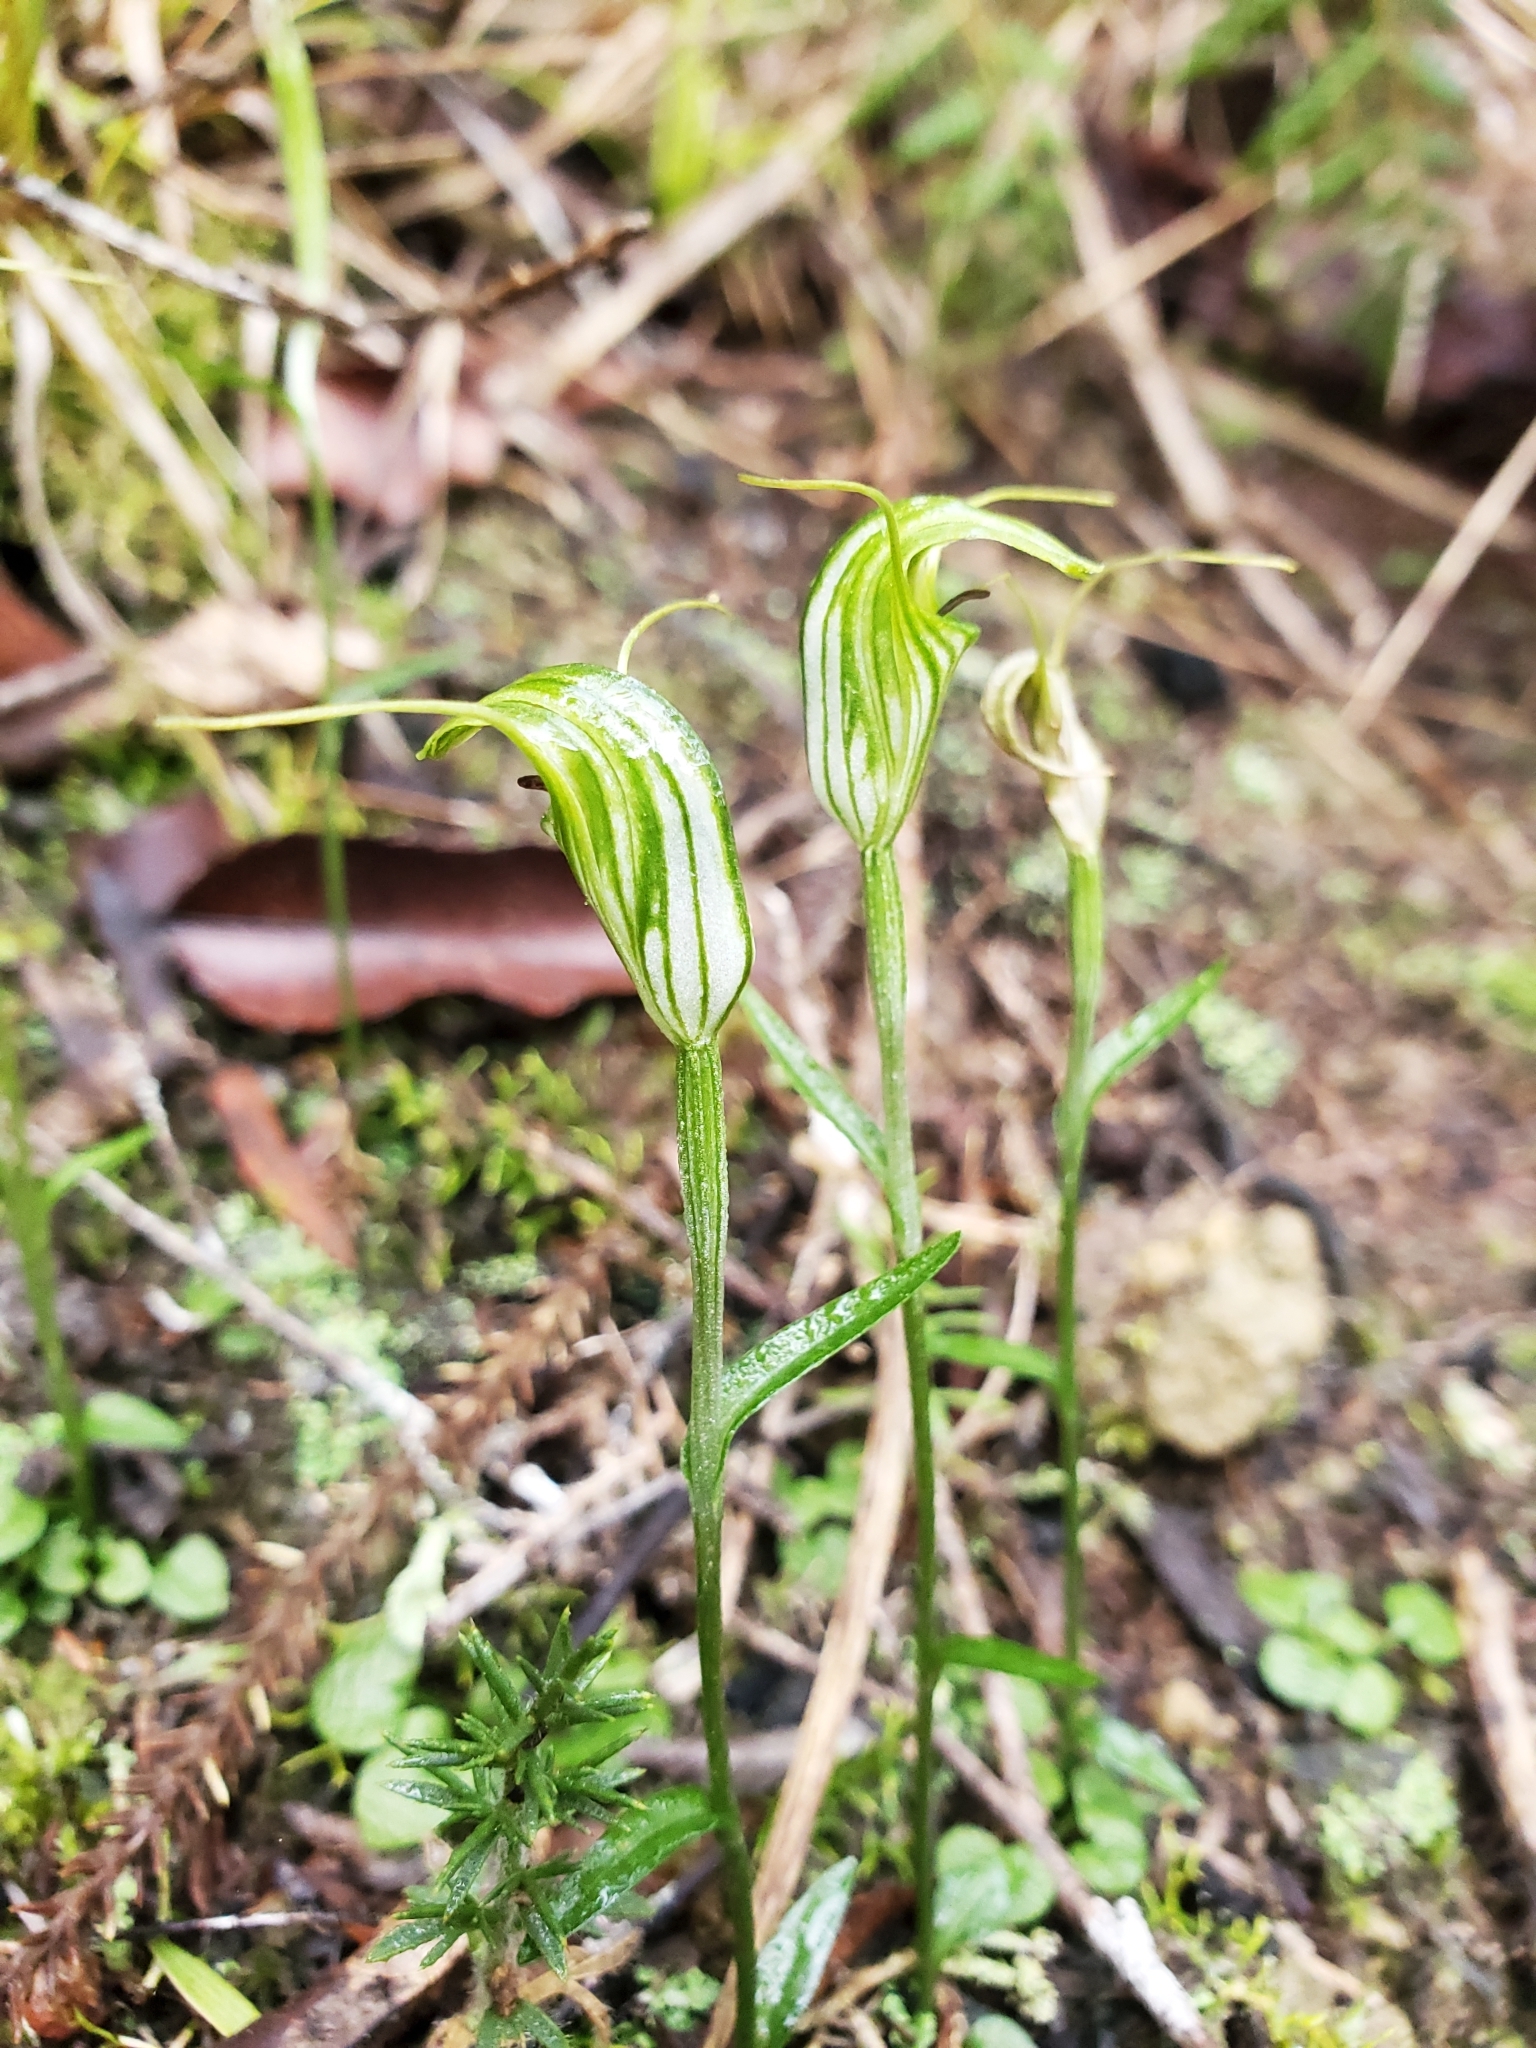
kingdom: Plantae
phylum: Tracheophyta
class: Liliopsida
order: Asparagales
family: Orchidaceae
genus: Pterostylis
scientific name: Pterostylis trullifolia
